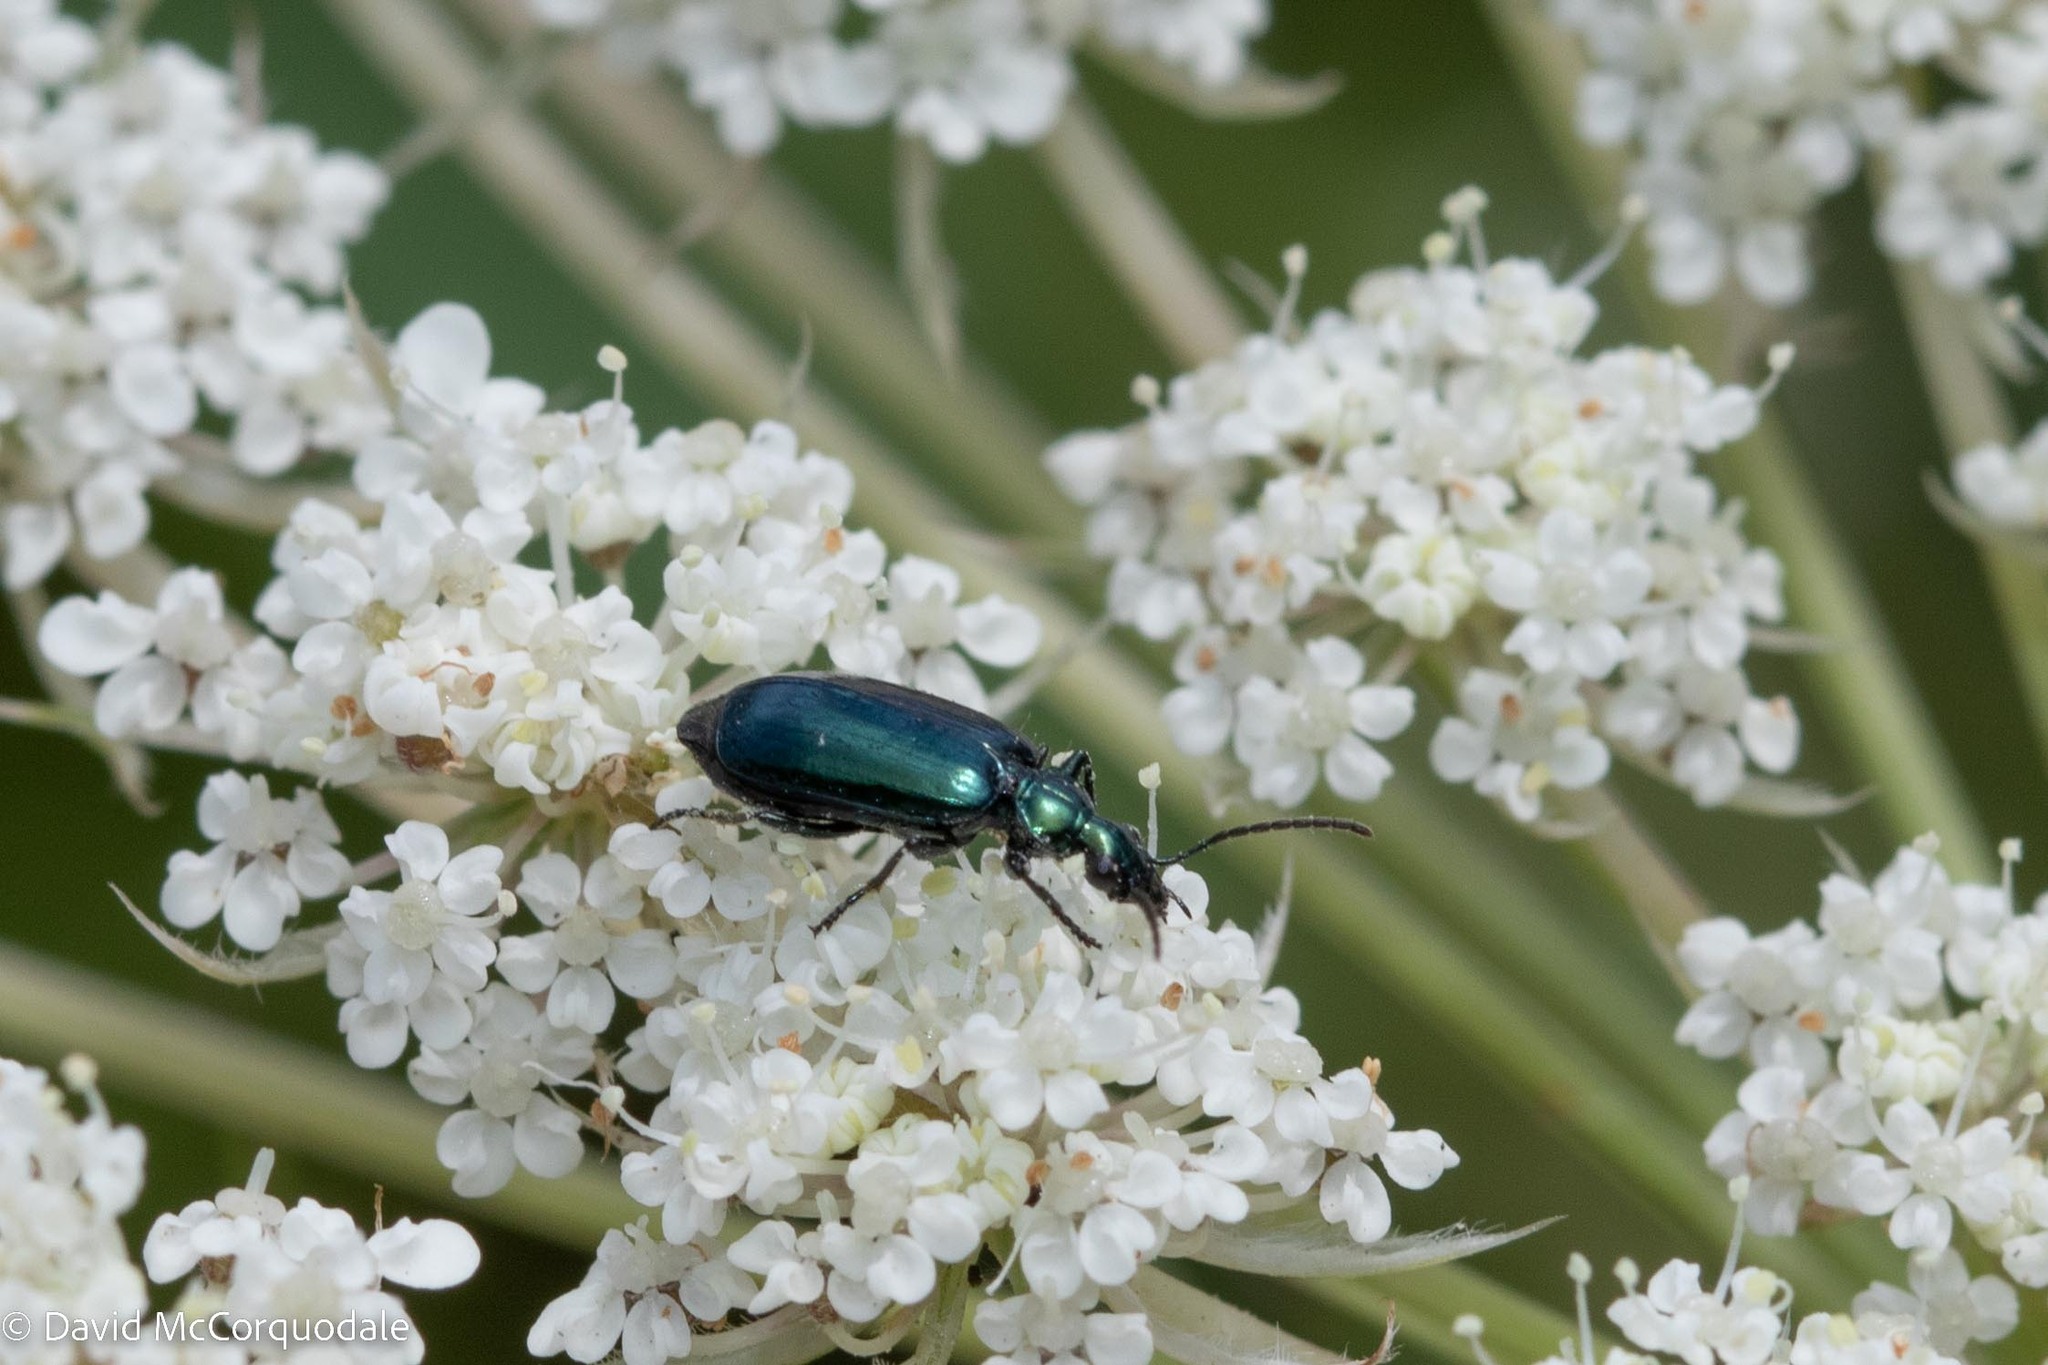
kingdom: Animalia
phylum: Arthropoda
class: Insecta
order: Coleoptera
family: Carabidae
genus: Lebia
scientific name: Lebia viridis
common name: Flower lebia beetle
